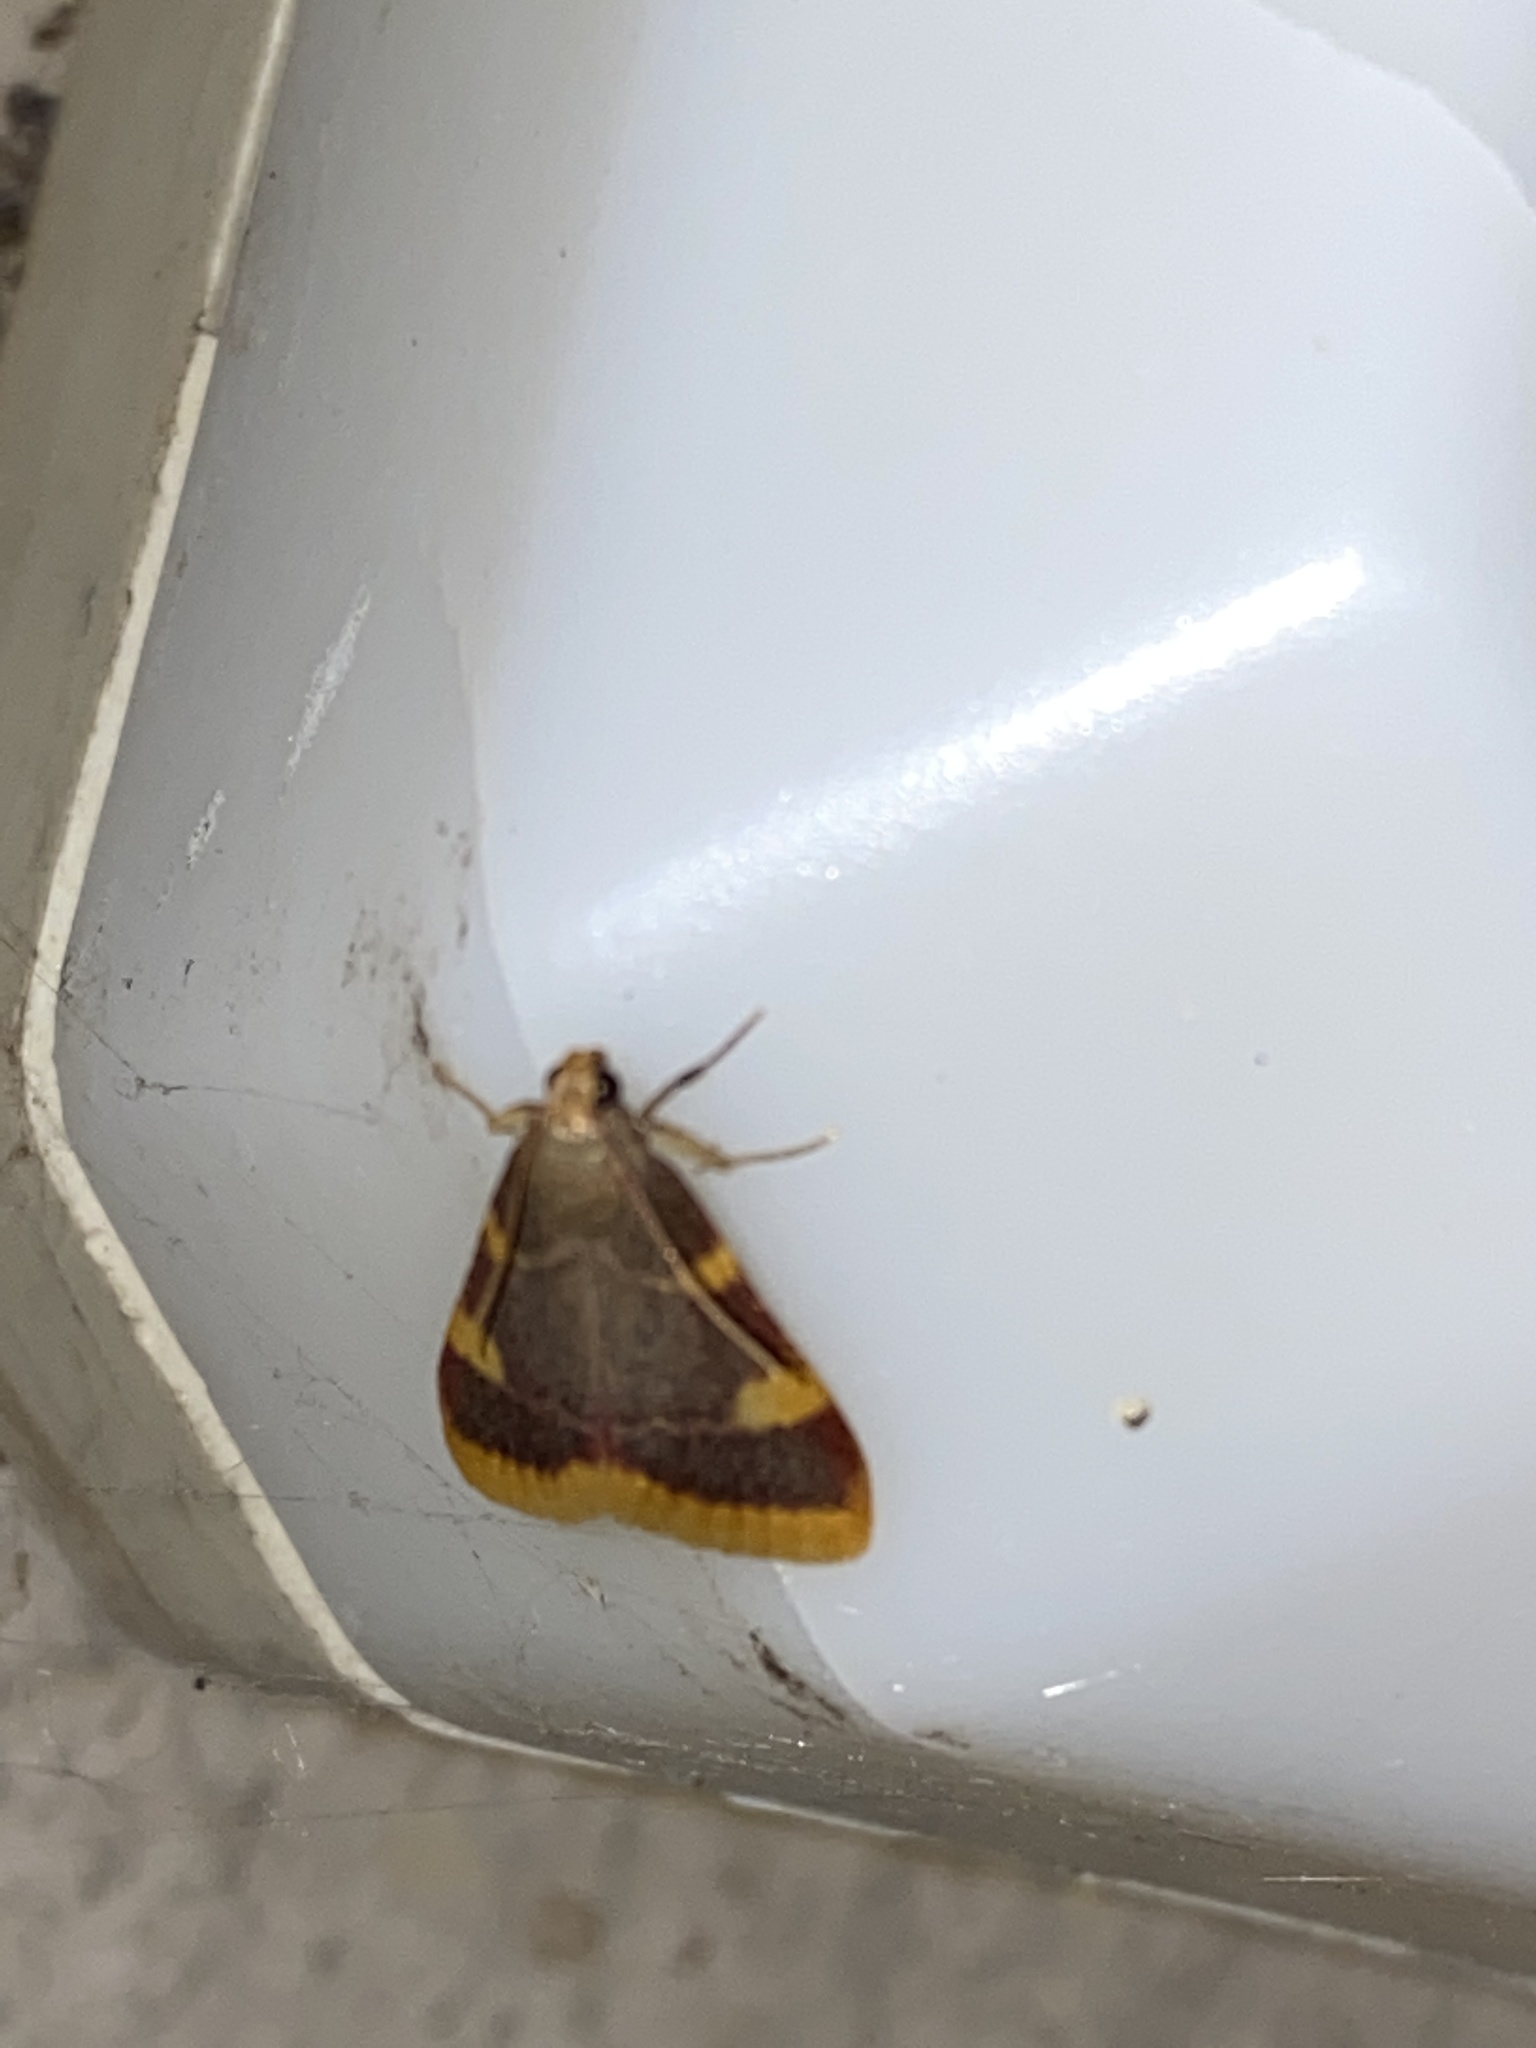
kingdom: Animalia
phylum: Arthropoda
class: Insecta
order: Lepidoptera
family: Pyralidae
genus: Hypsopygia
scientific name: Hypsopygia costalis
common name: Gold triangle
